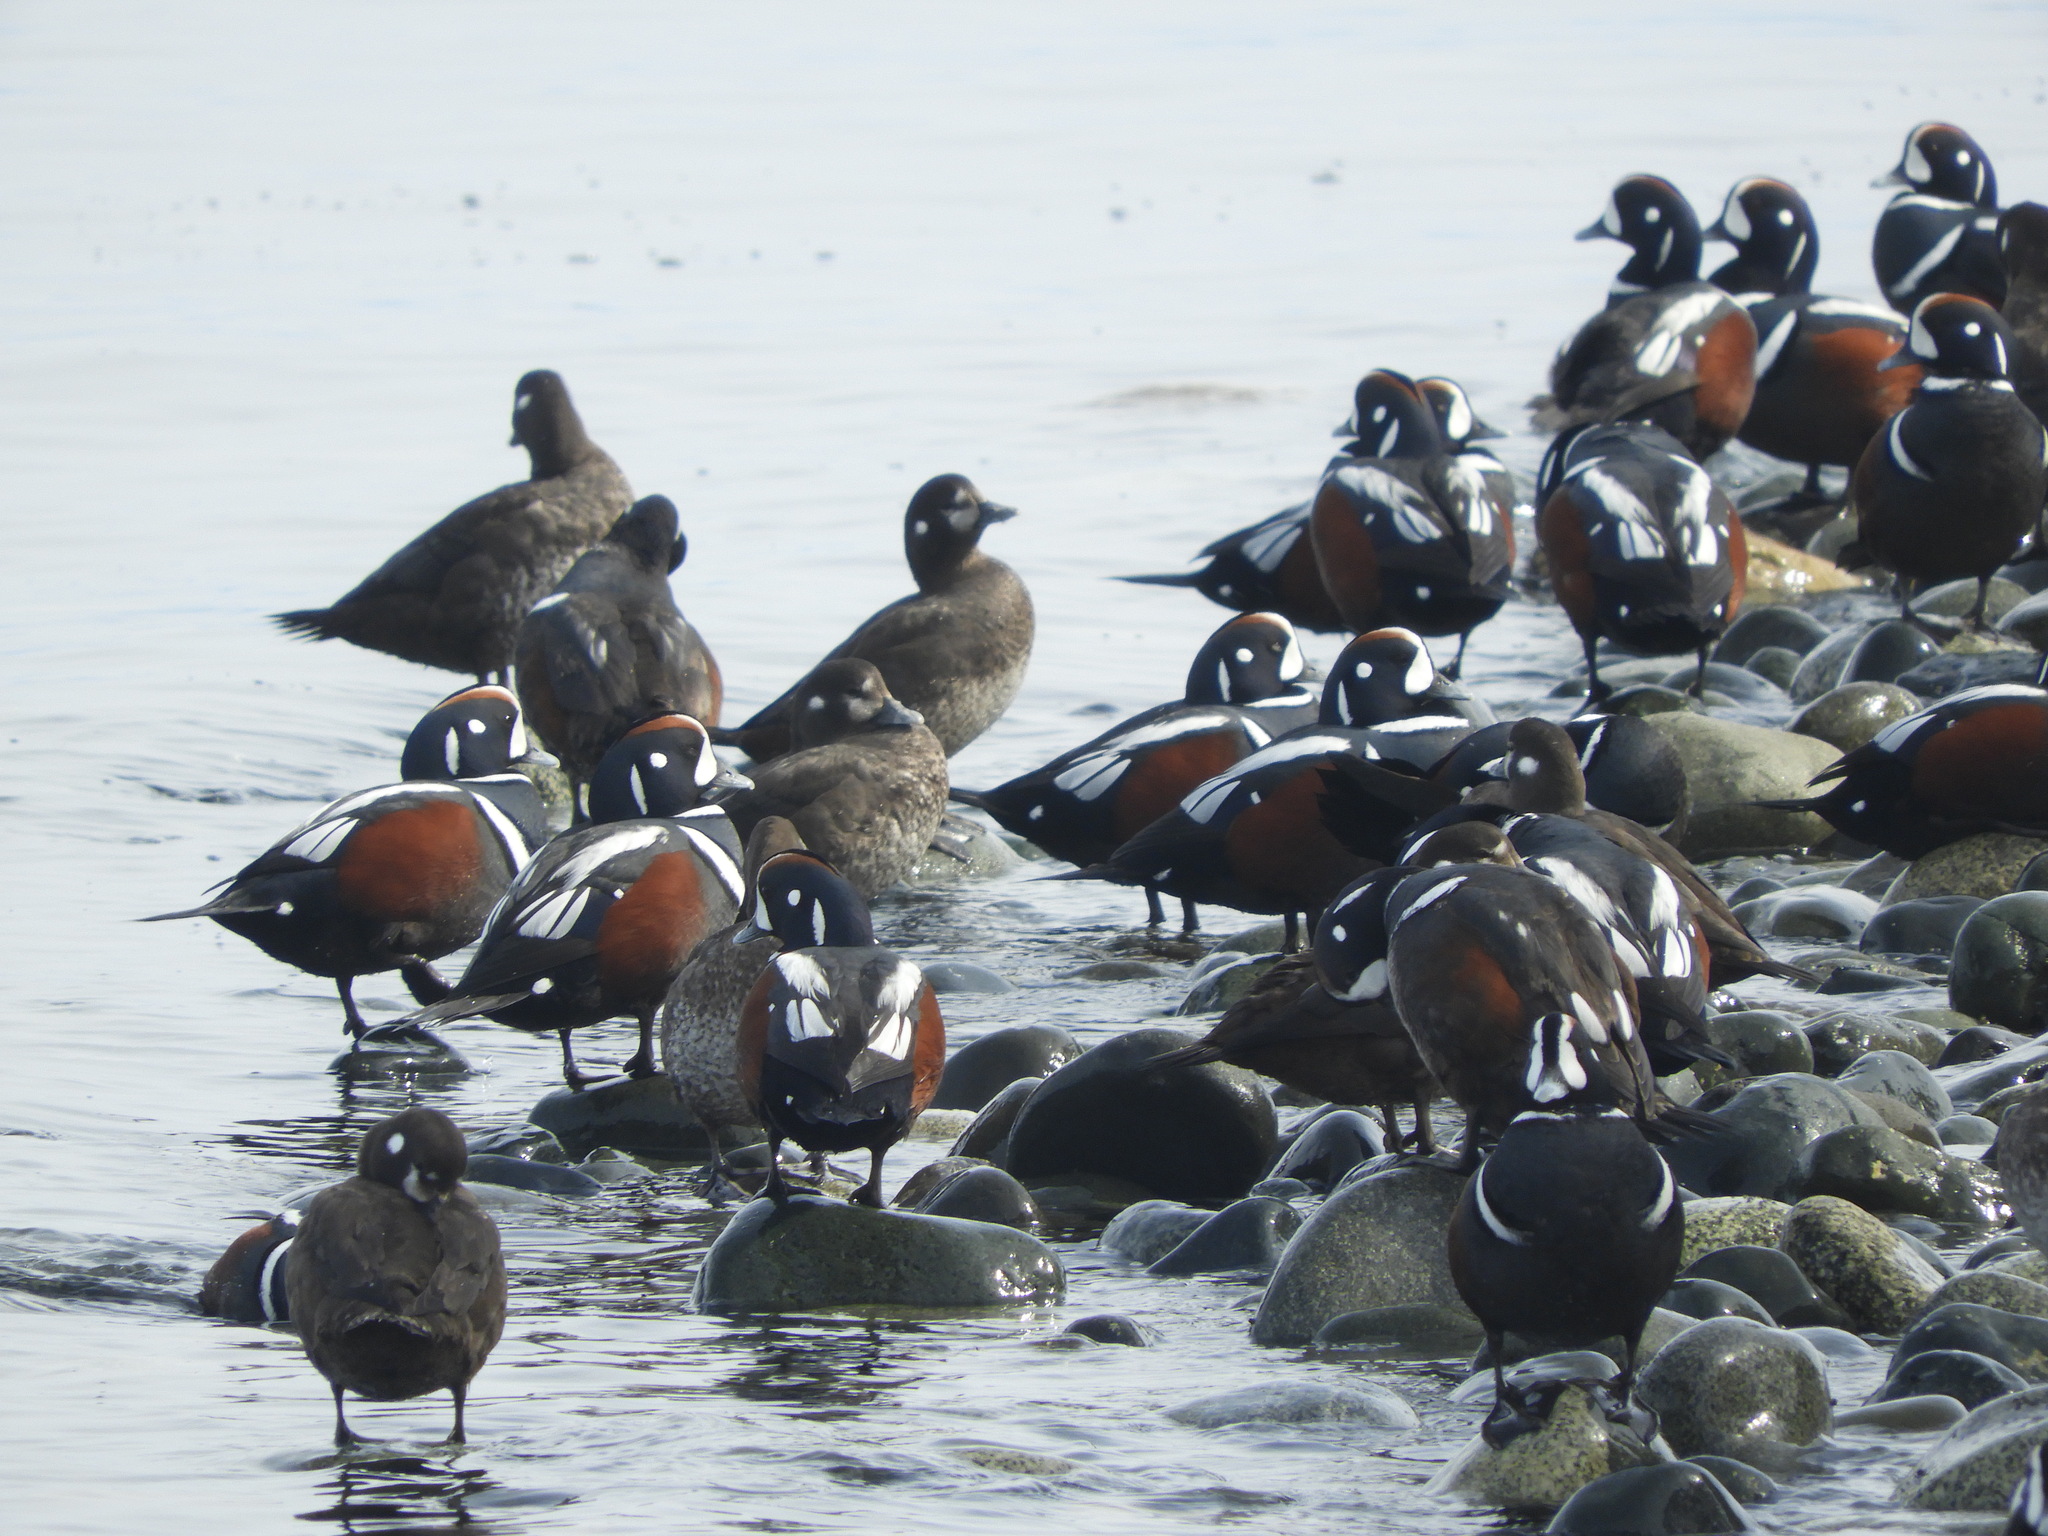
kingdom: Animalia
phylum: Chordata
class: Aves
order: Anseriformes
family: Anatidae
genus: Histrionicus
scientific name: Histrionicus histrionicus
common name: Harlequin duck
